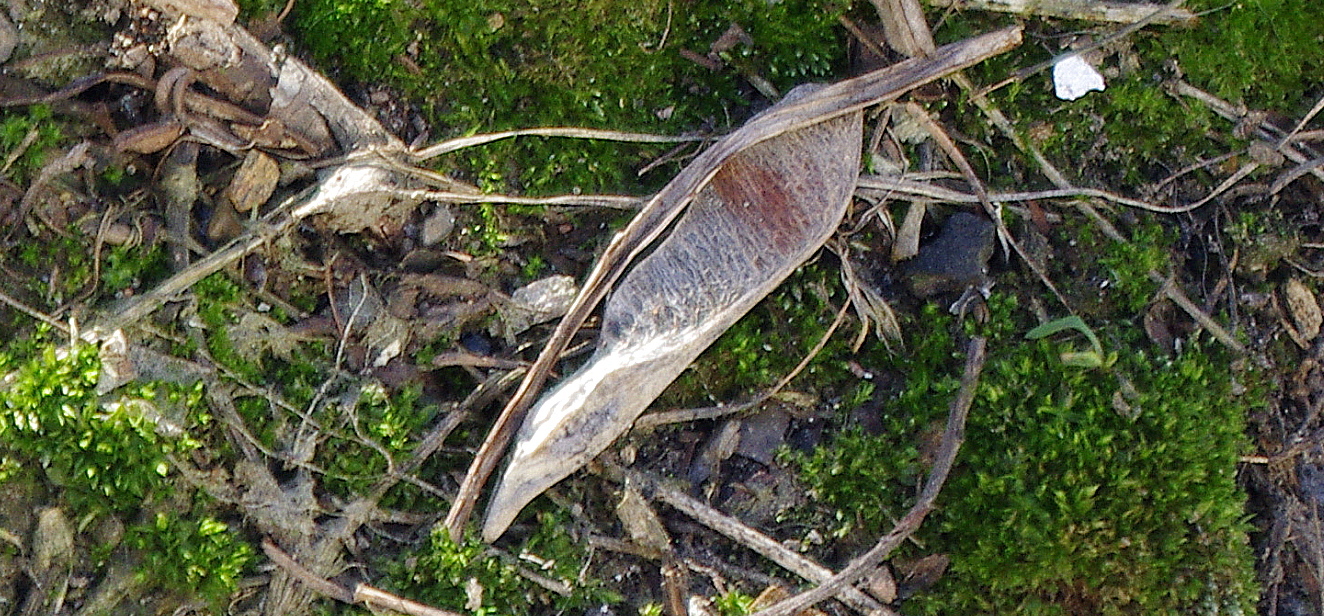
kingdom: Plantae
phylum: Tracheophyta
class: Magnoliopsida
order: Sapindales
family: Sapindaceae
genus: Acer
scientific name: Acer negundo
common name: Ashleaf maple
